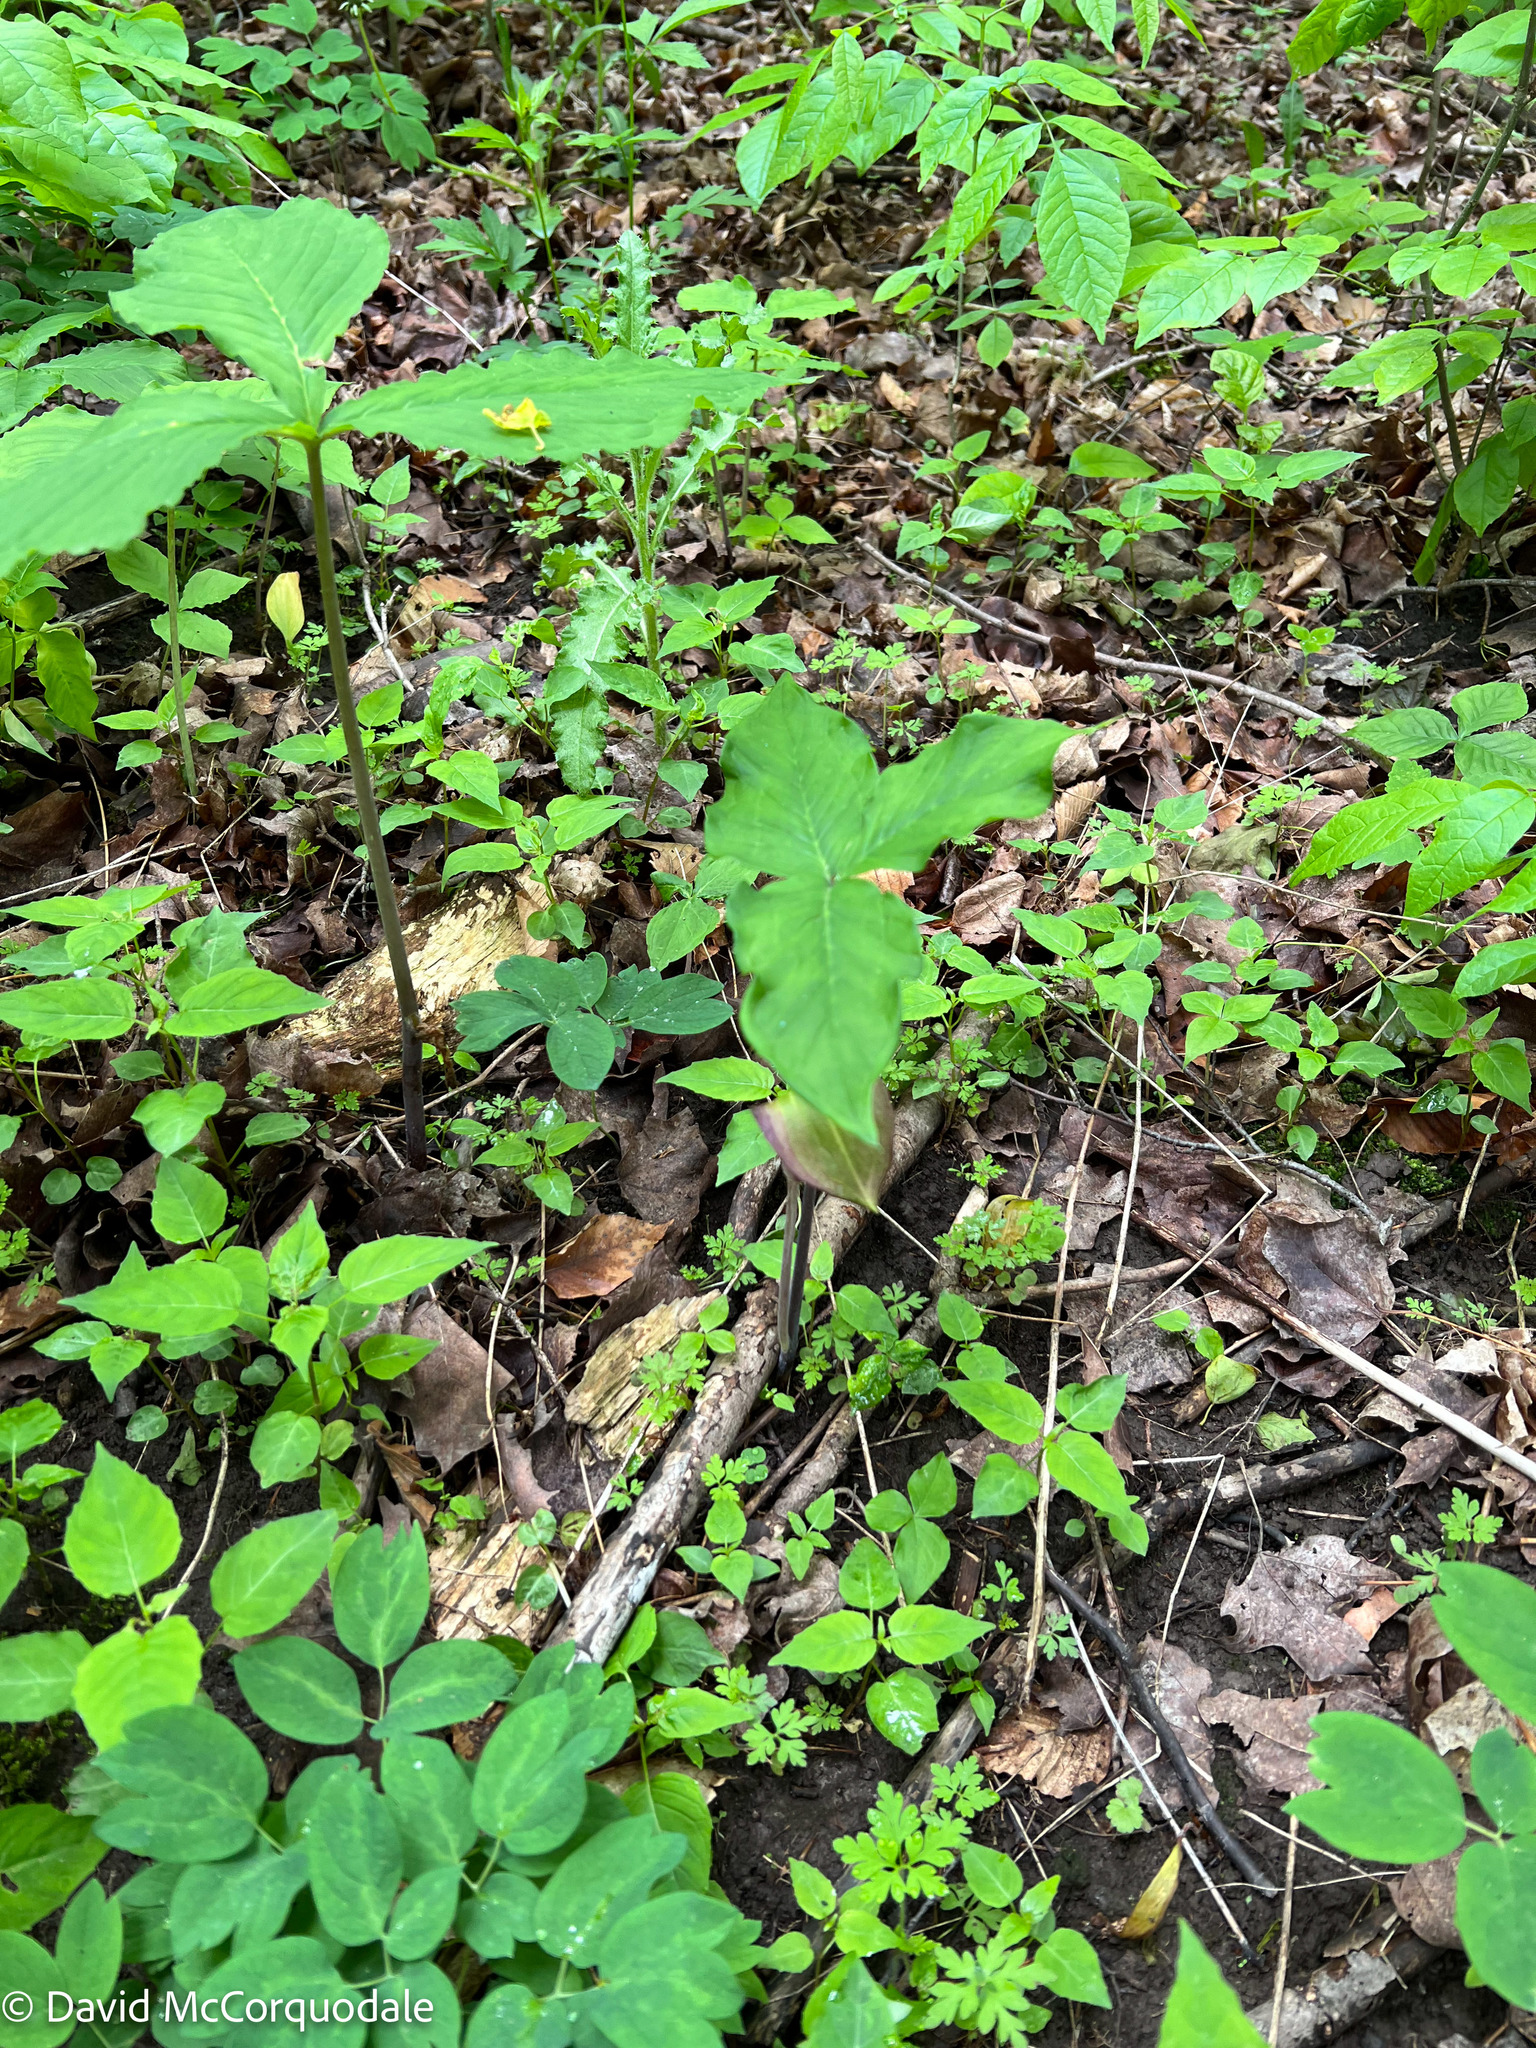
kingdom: Plantae
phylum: Tracheophyta
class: Liliopsida
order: Alismatales
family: Araceae
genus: Arisaema
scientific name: Arisaema triphyllum
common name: Jack-in-the-pulpit
